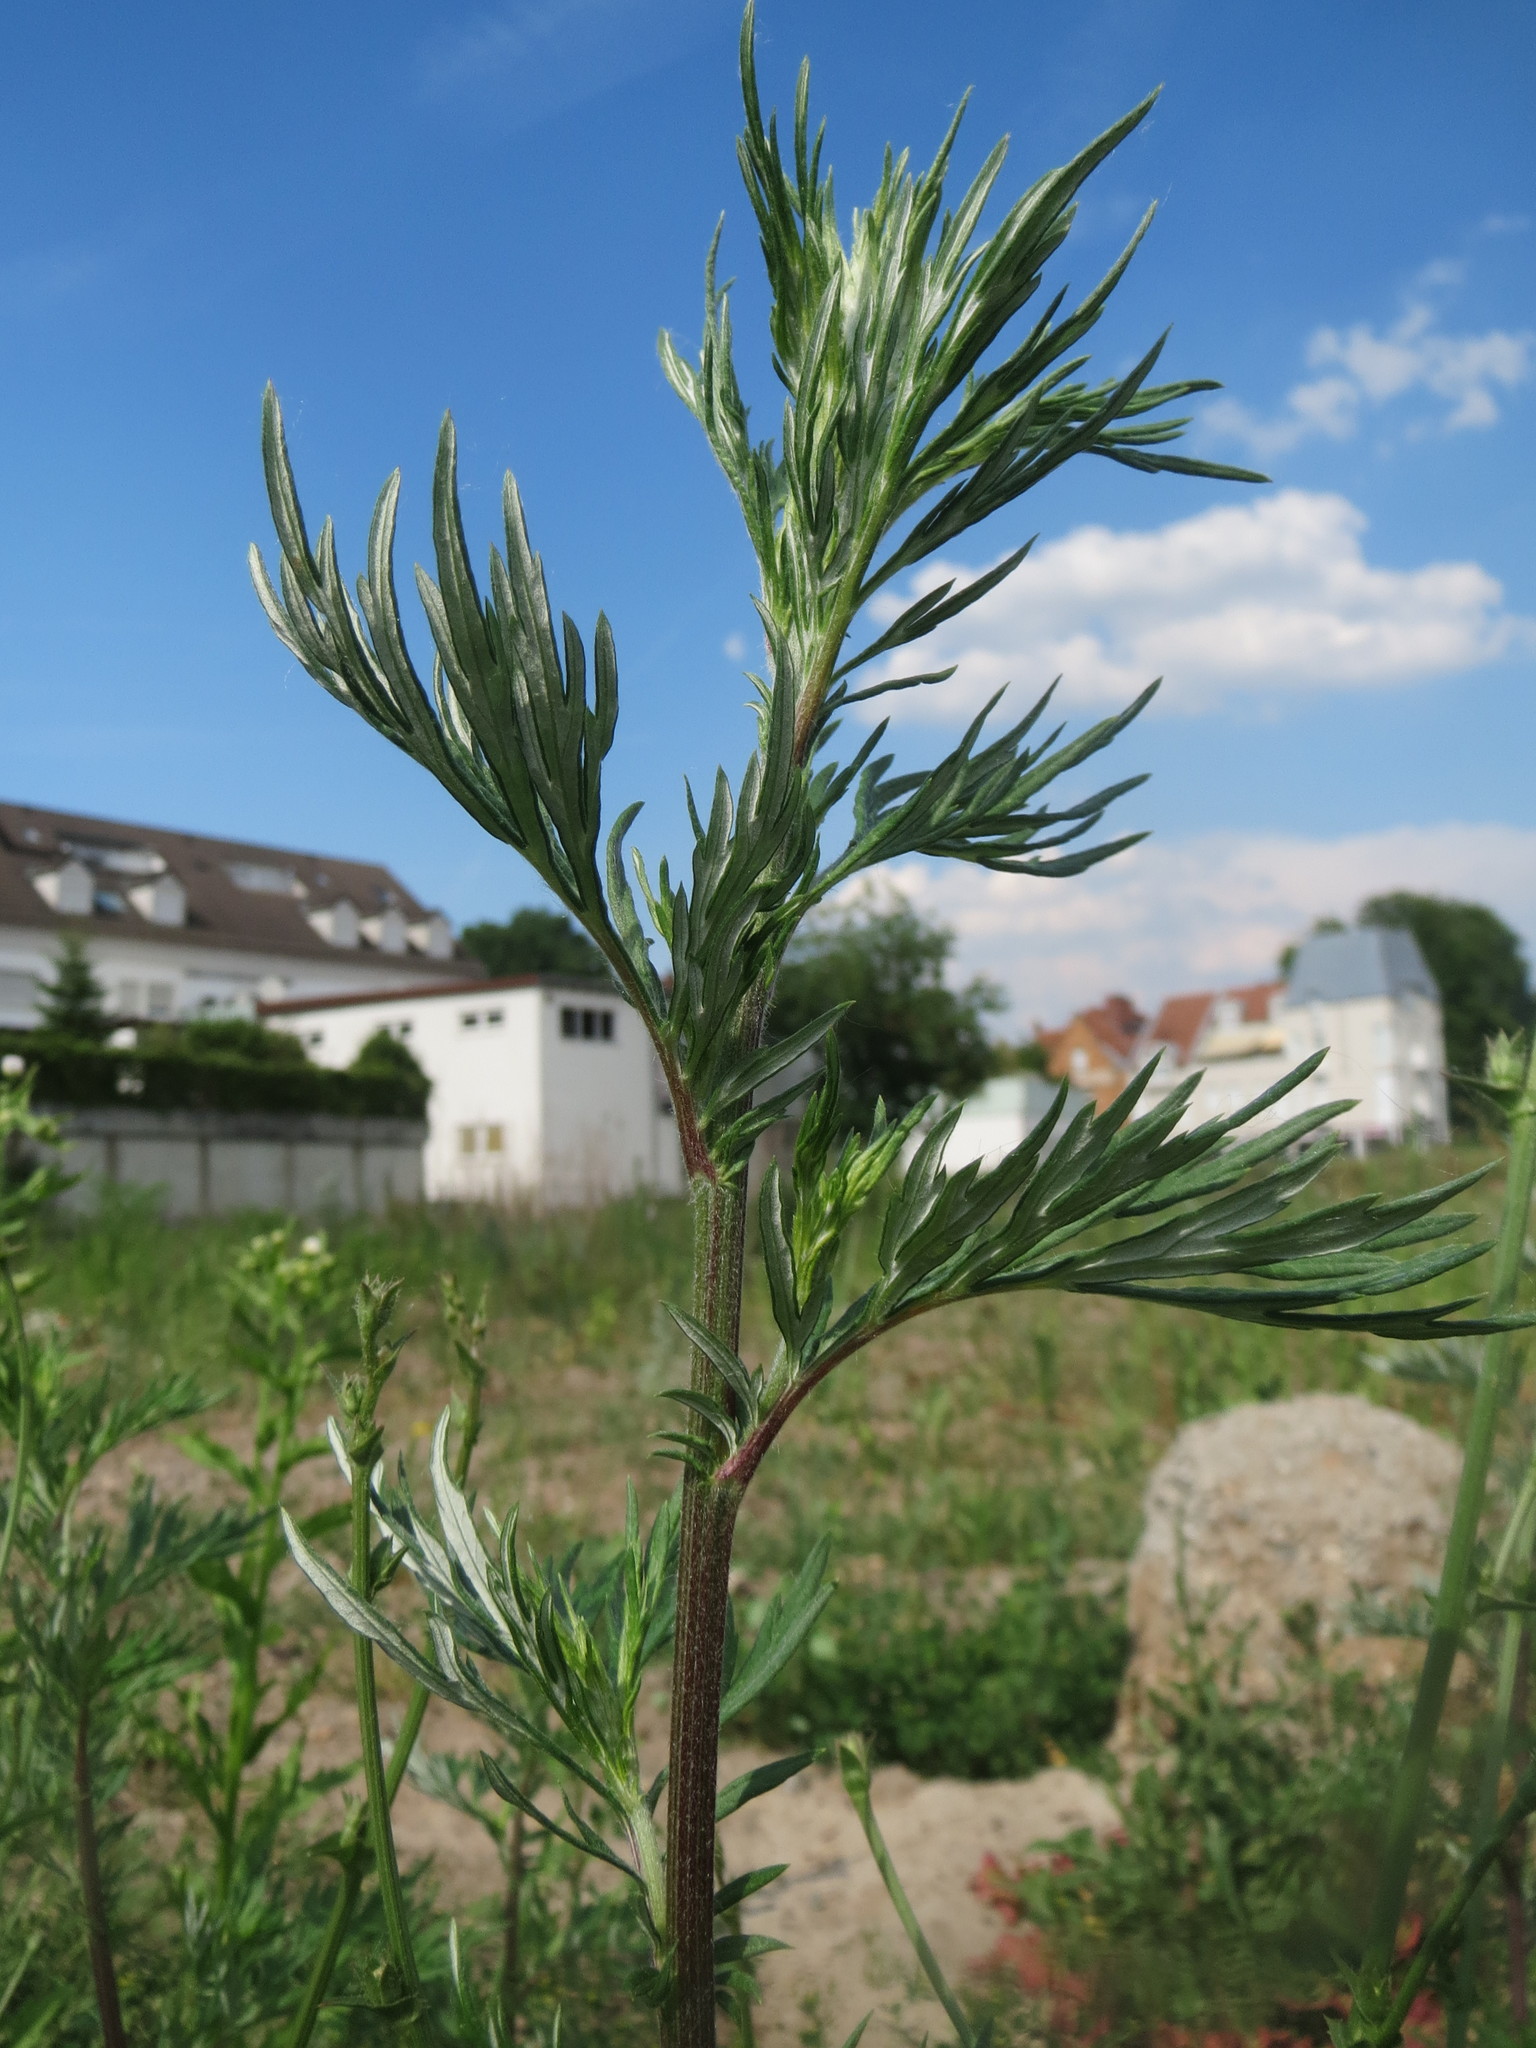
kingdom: Plantae
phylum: Tracheophyta
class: Magnoliopsida
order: Asterales
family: Asteraceae
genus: Artemisia
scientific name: Artemisia vulgaris
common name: Mugwort
